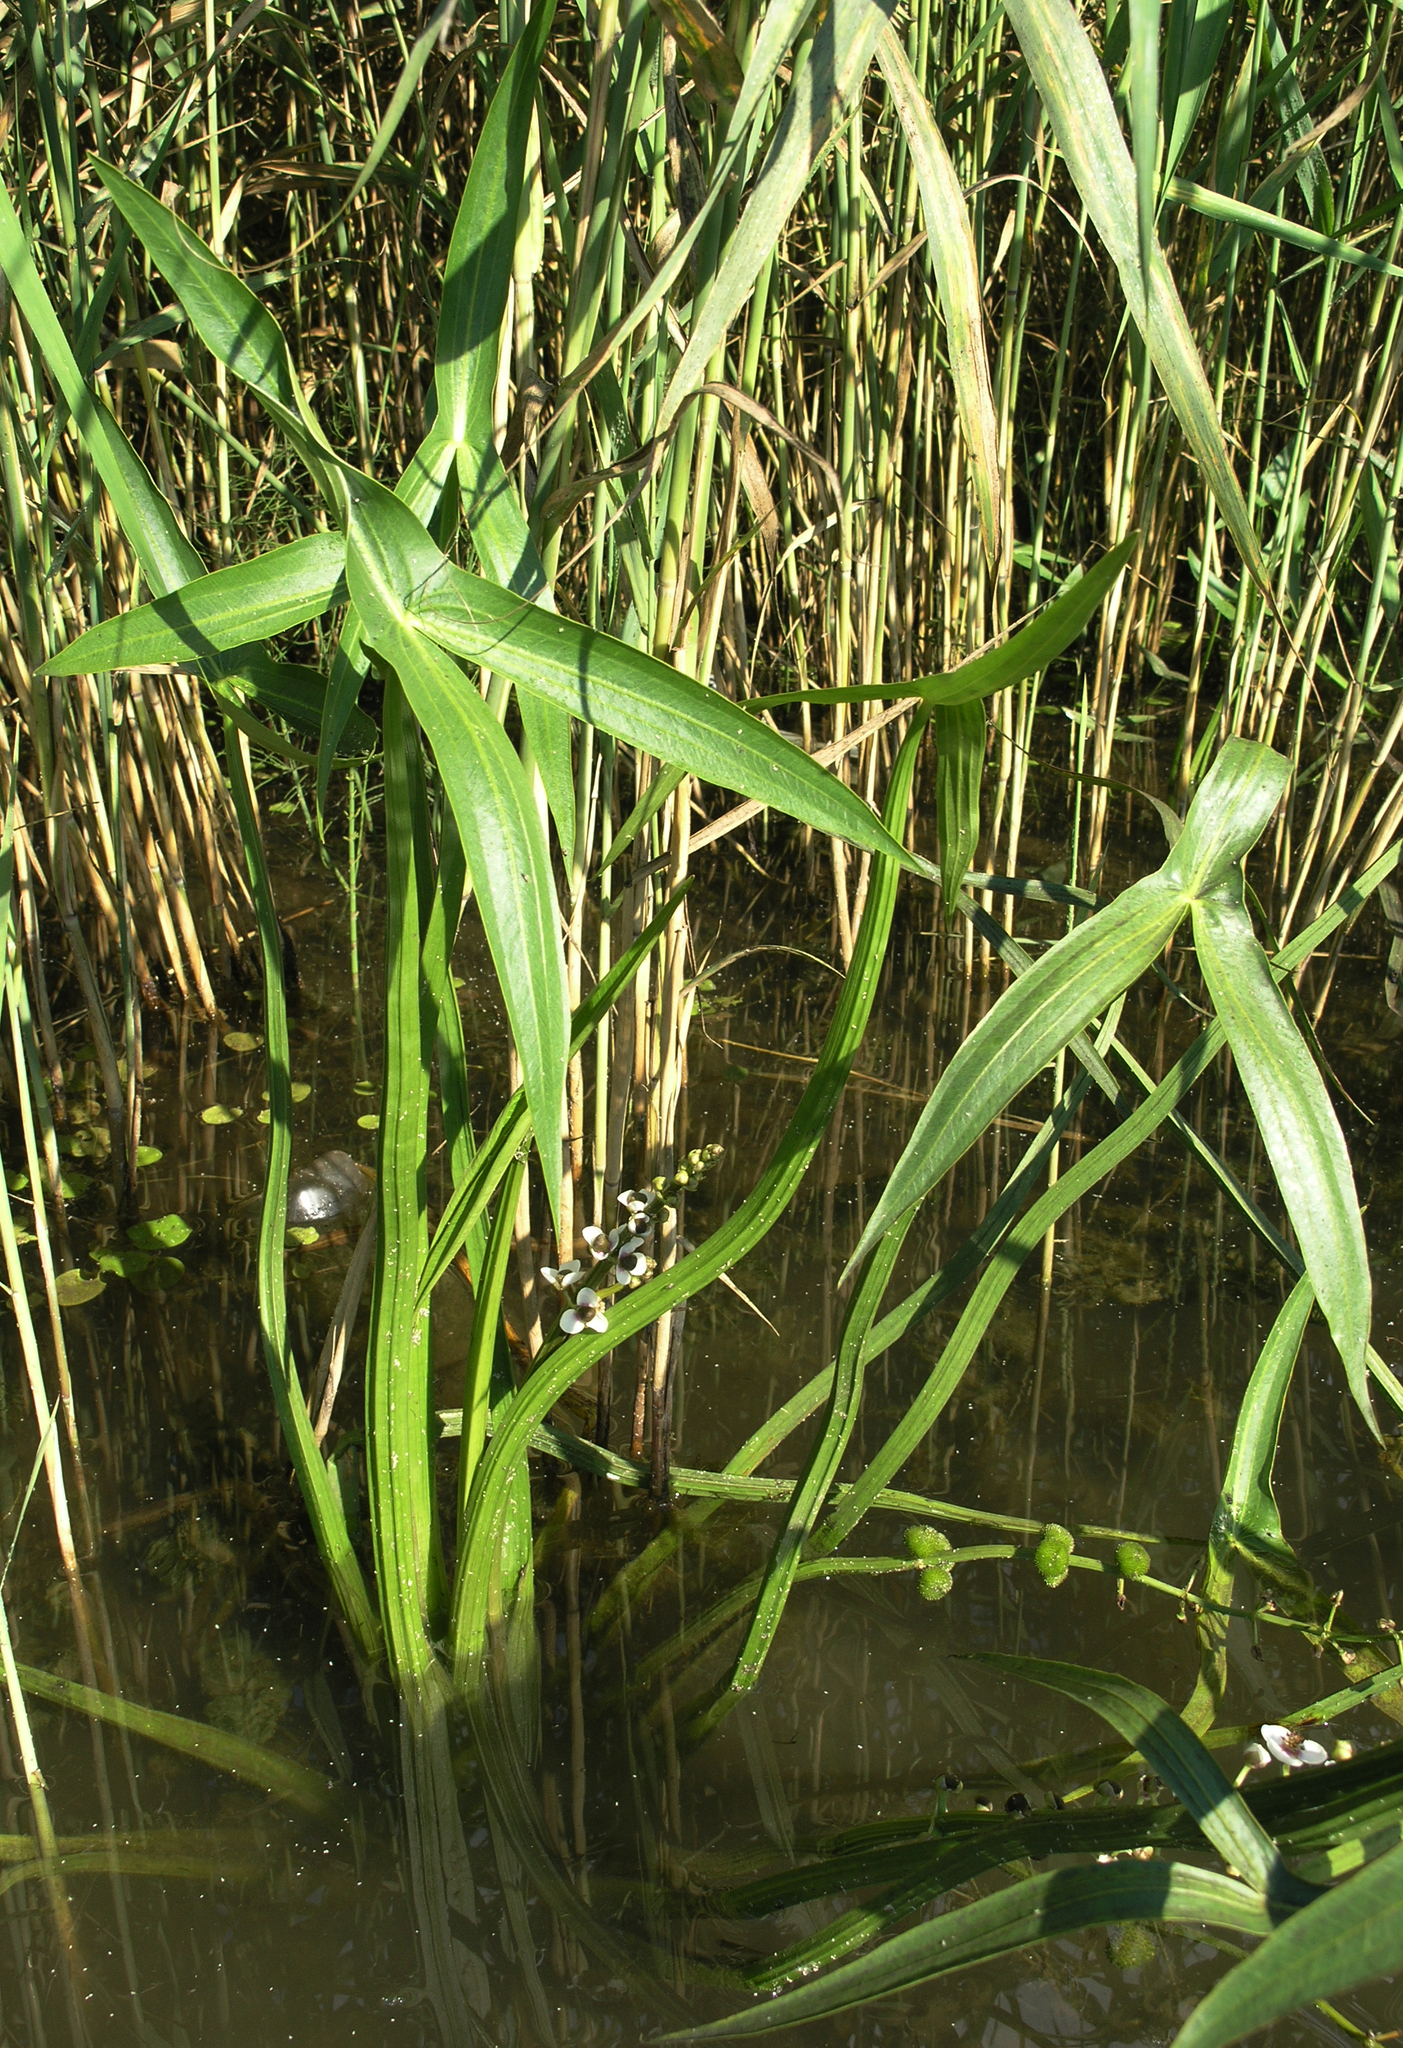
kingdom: Plantae
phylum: Tracheophyta
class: Liliopsida
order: Alismatales
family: Alismataceae
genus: Sagittaria
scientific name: Sagittaria sagittifolia
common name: Arrowhead
